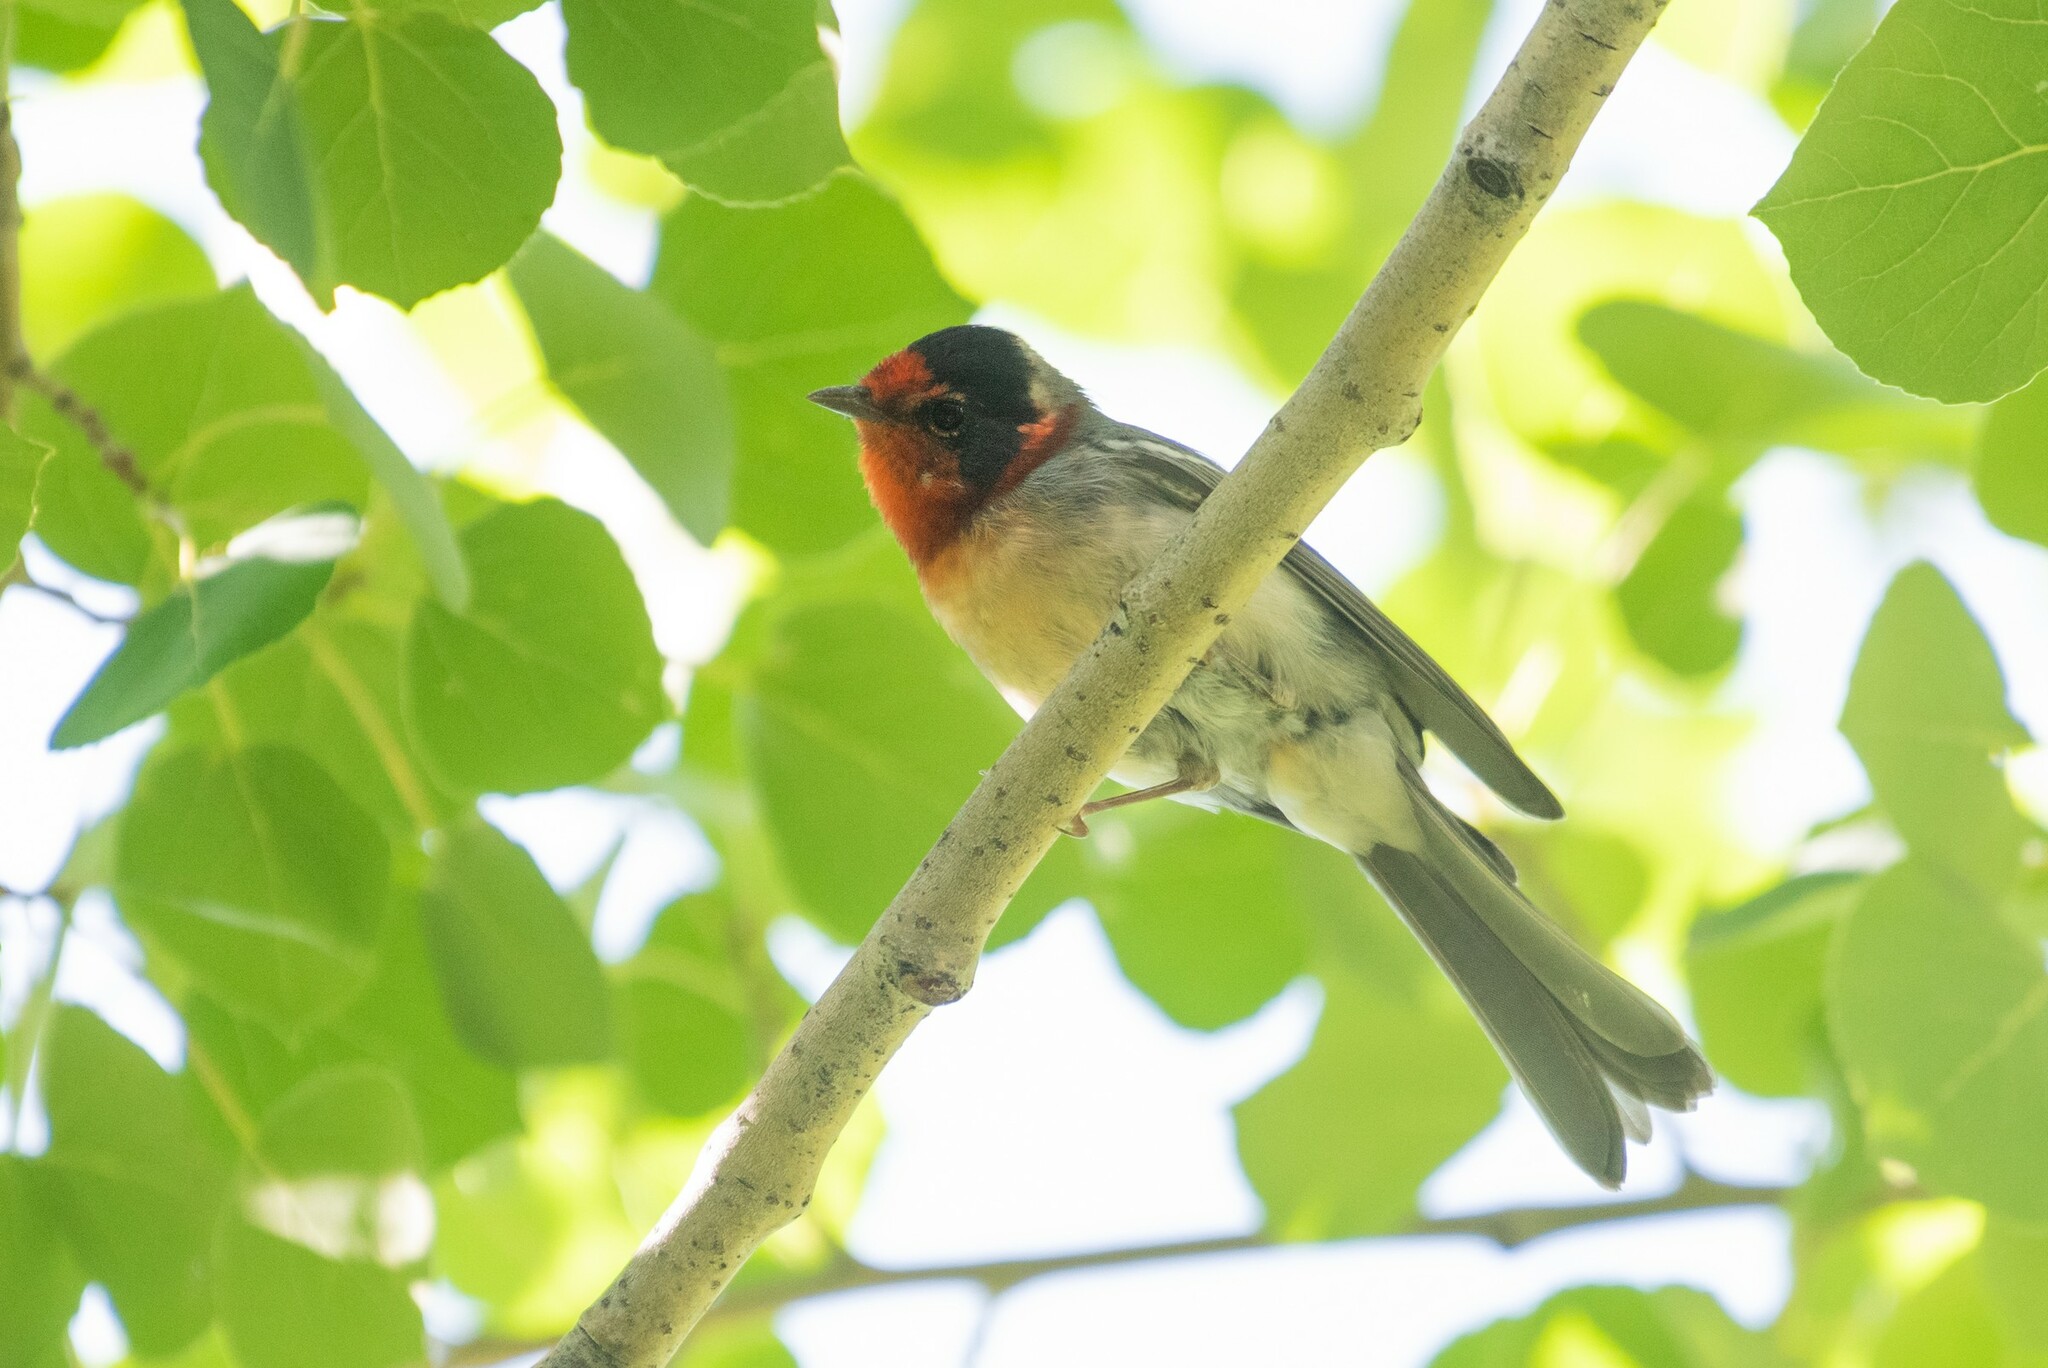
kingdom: Animalia
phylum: Chordata
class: Aves
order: Passeriformes
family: Parulidae
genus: Cardellina
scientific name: Cardellina rubrifrons
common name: Red-faced warbler
